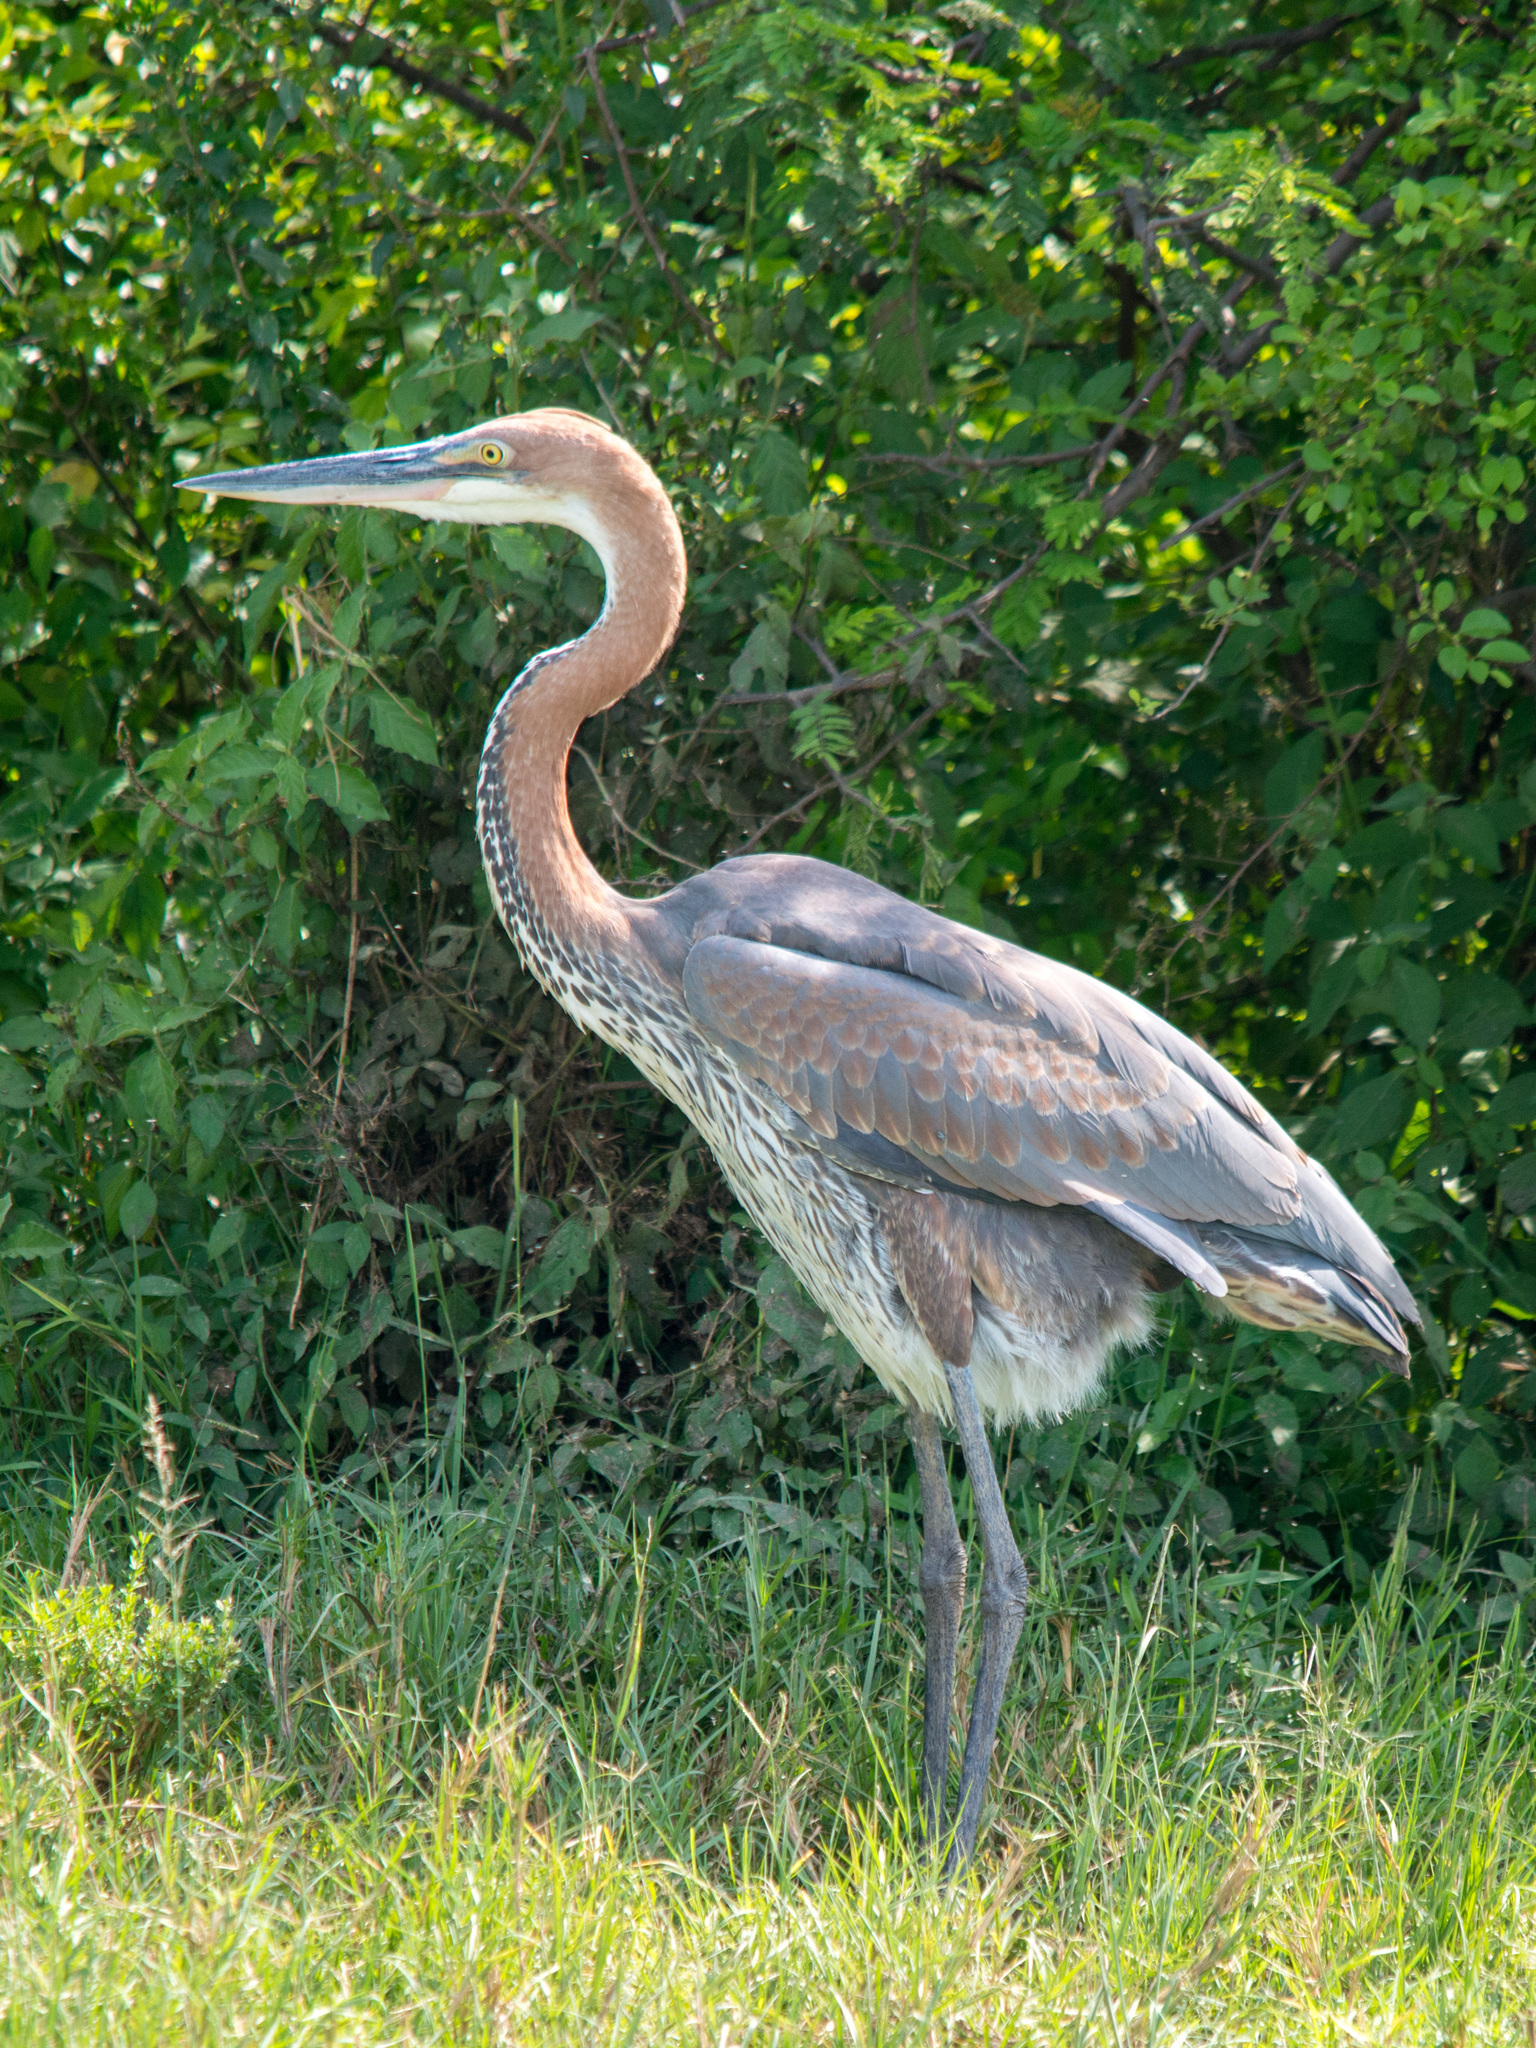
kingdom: Animalia
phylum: Chordata
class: Aves
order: Pelecaniformes
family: Ardeidae
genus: Ardea
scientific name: Ardea goliath
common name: Goliath heron
